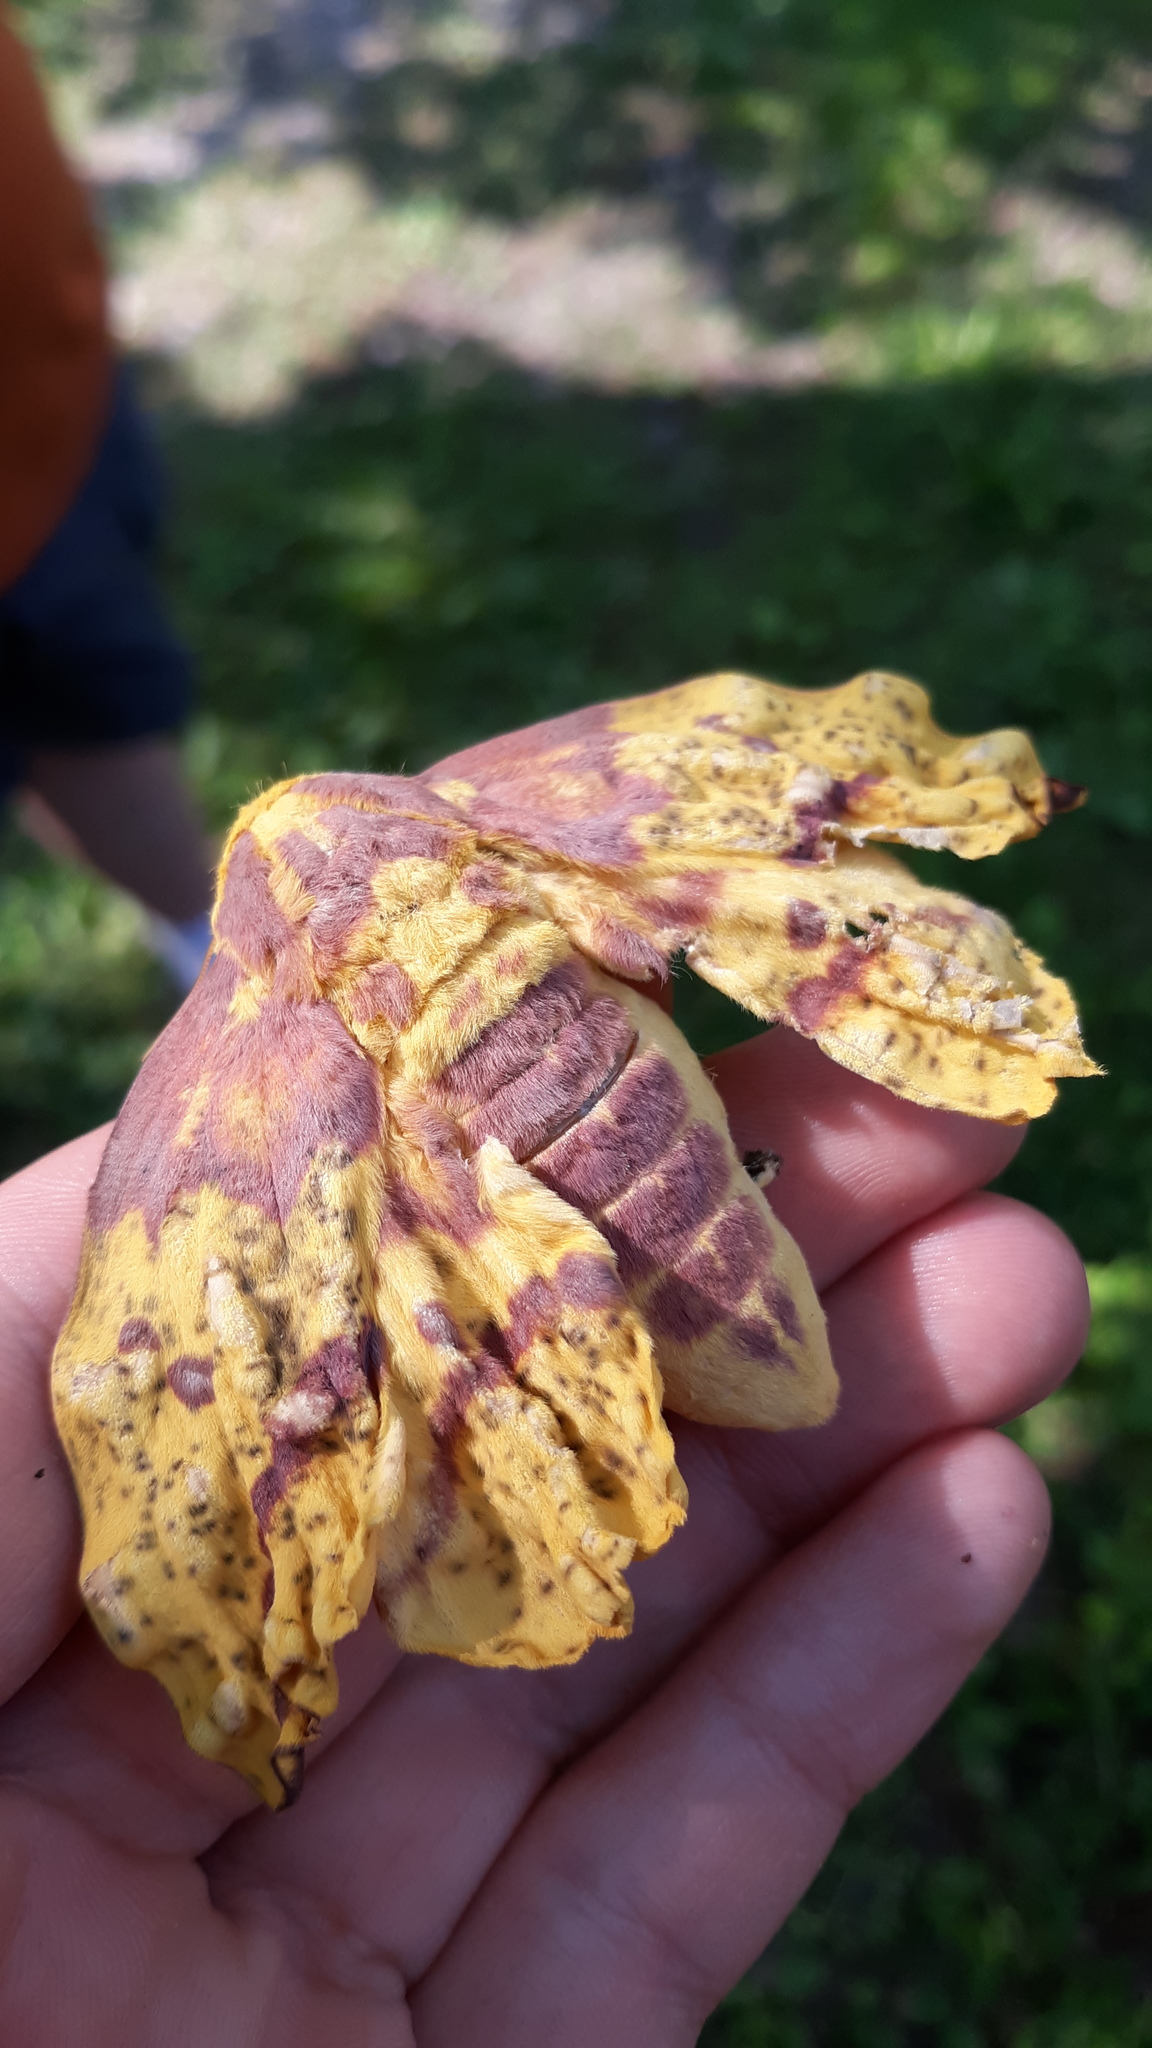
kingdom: Animalia
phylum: Arthropoda
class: Insecta
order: Lepidoptera
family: Saturniidae
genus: Eacles
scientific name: Eacles imperialis
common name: Imperial moth
